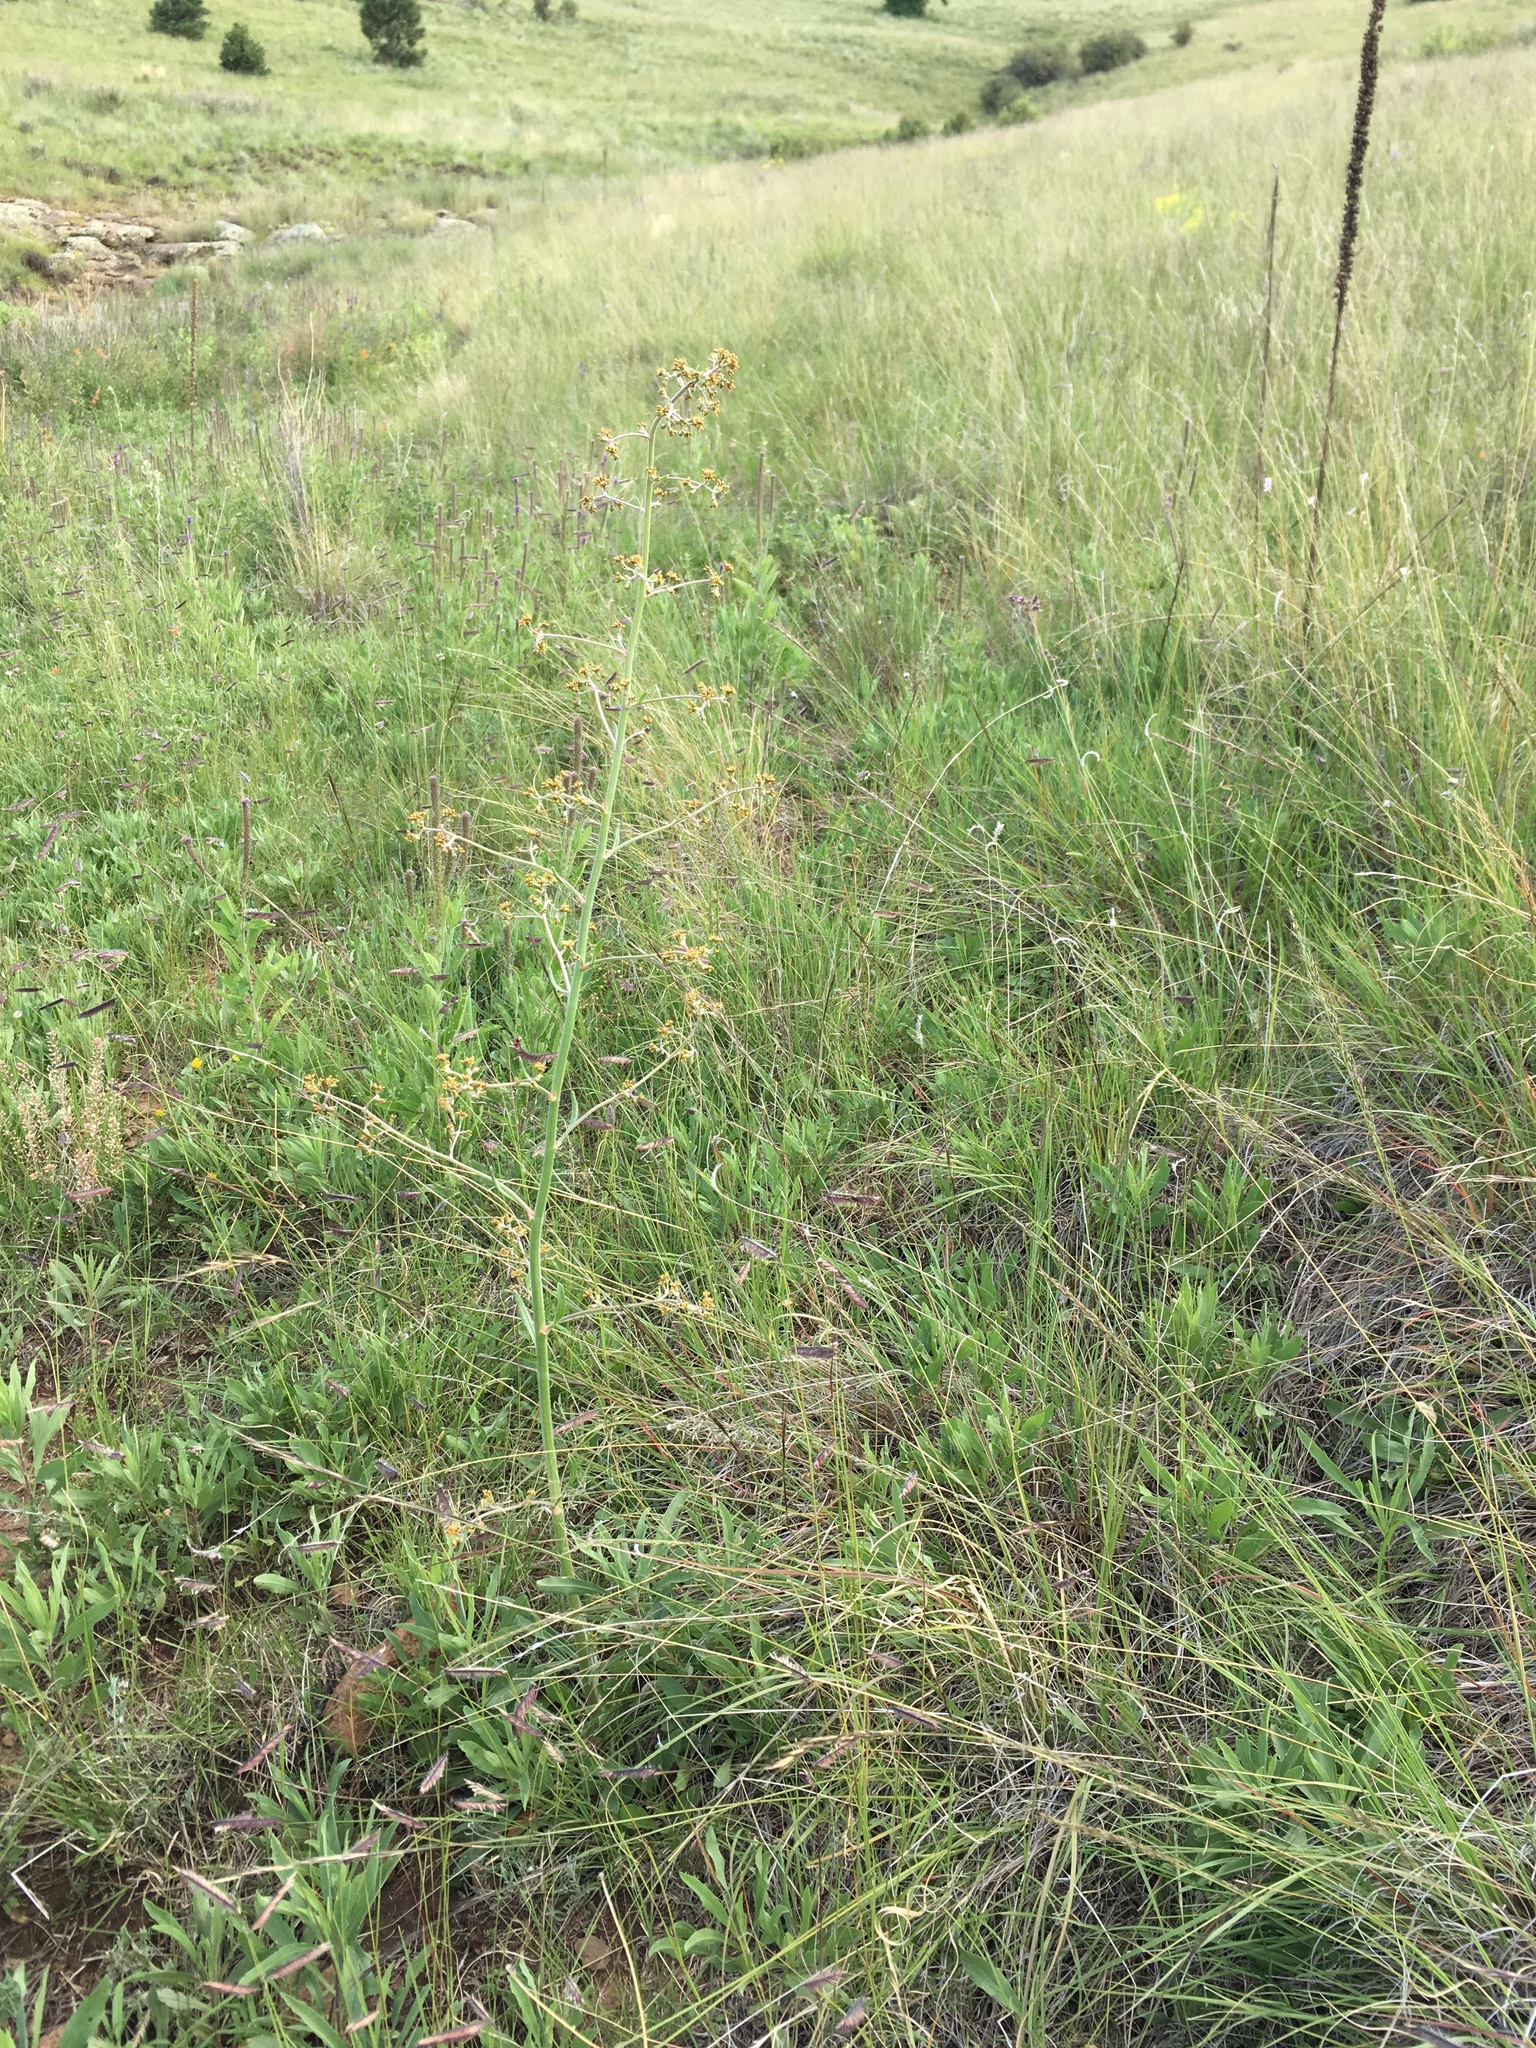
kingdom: Plantae
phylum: Tracheophyta
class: Magnoliopsida
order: Caryophyllales
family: Polygonaceae
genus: Eriogonum
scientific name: Eriogonum alatum
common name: Winged eriogonum
